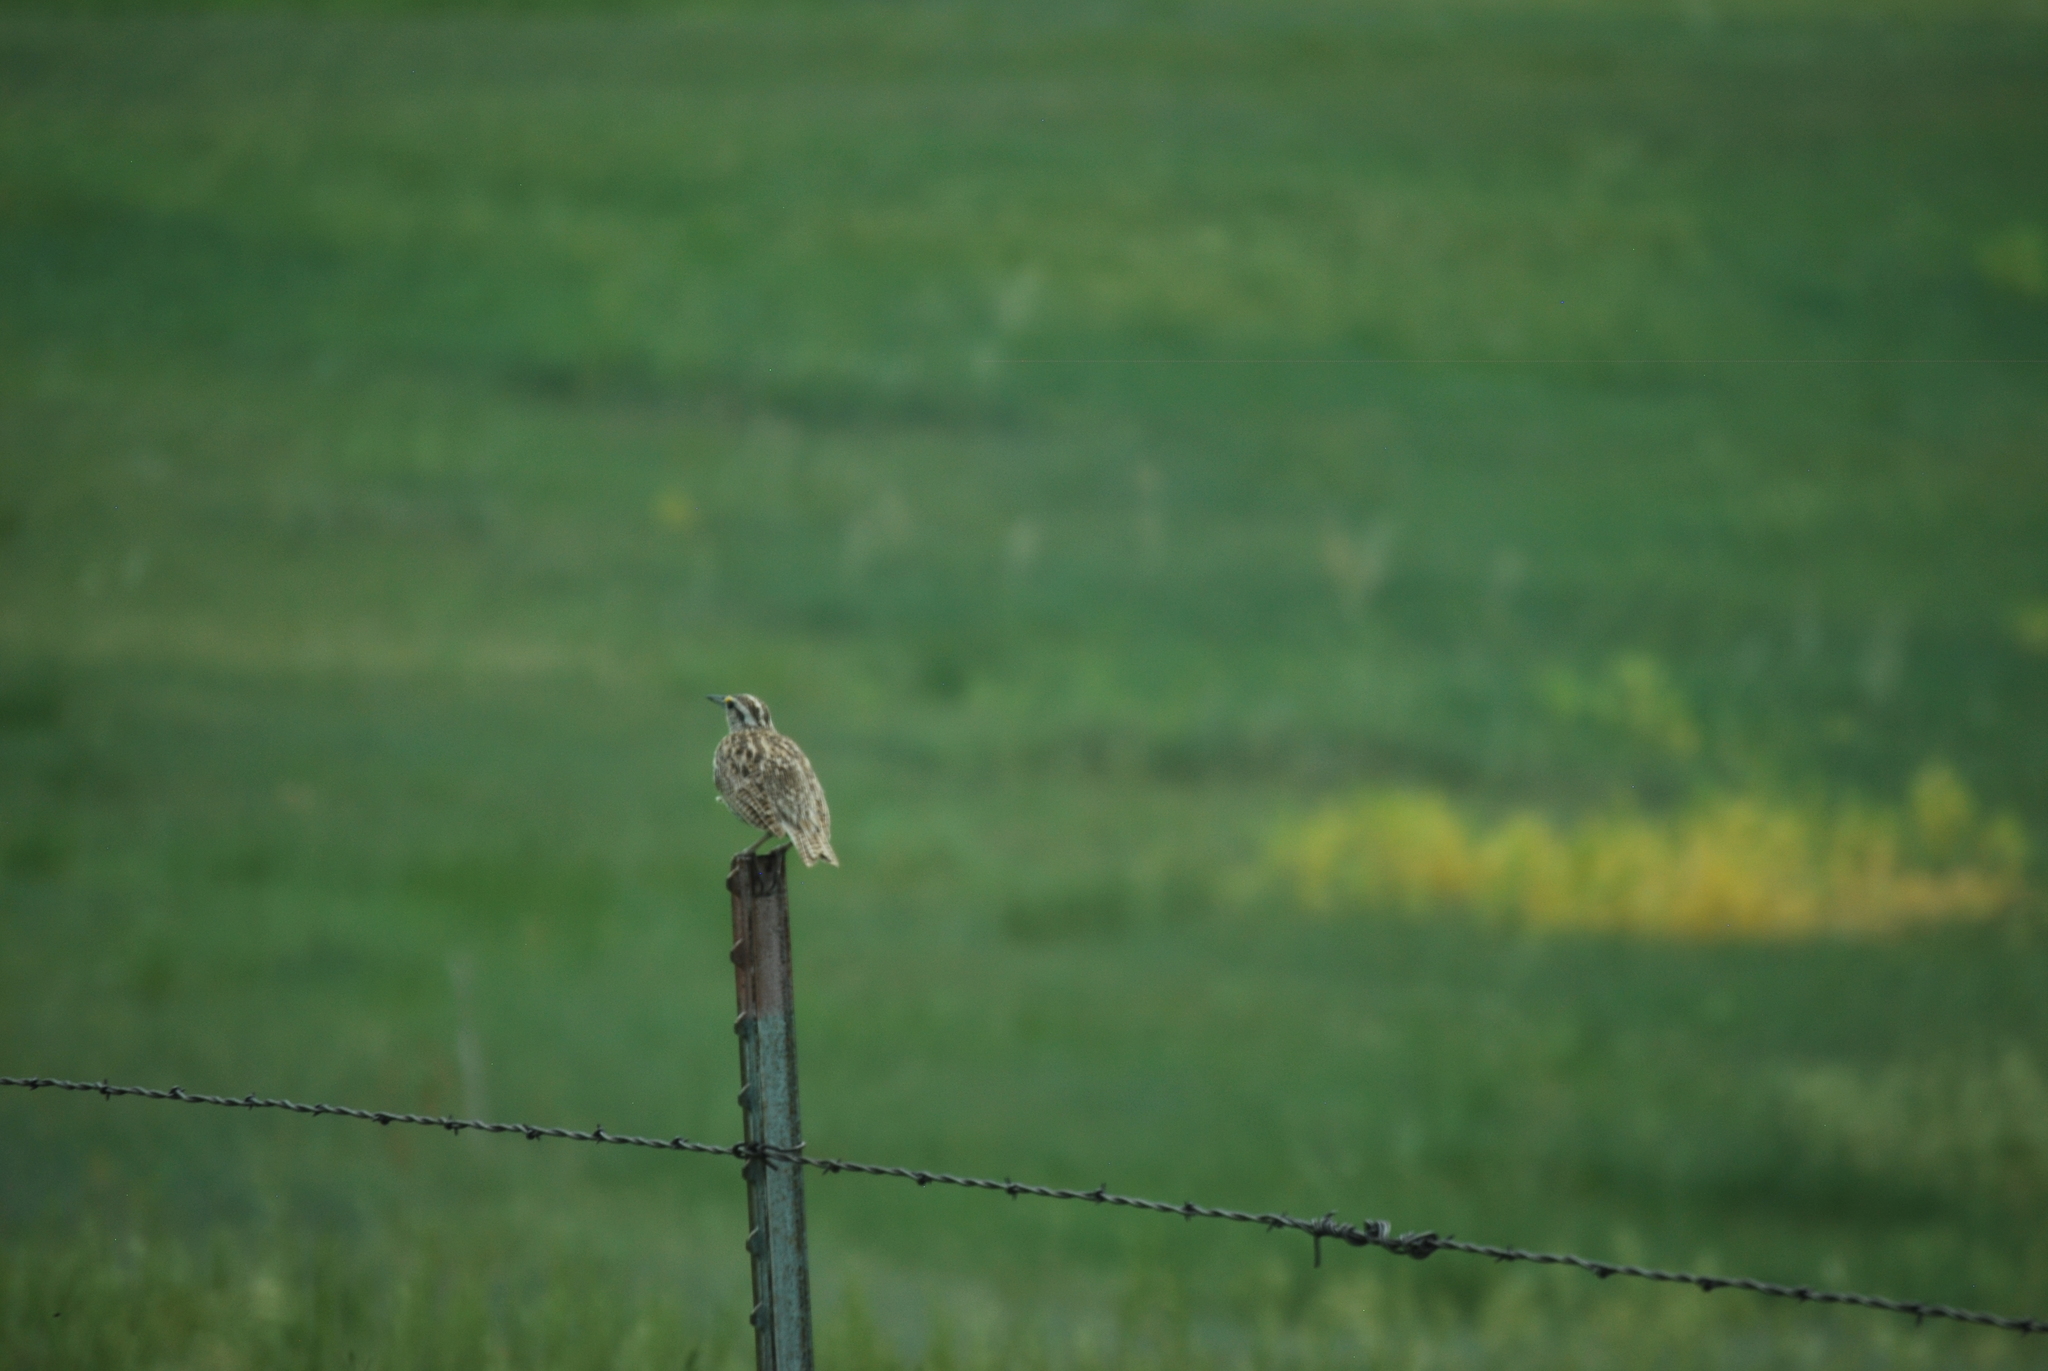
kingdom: Animalia
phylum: Chordata
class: Aves
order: Passeriformes
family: Icteridae
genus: Sturnella
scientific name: Sturnella neglecta
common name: Western meadowlark
